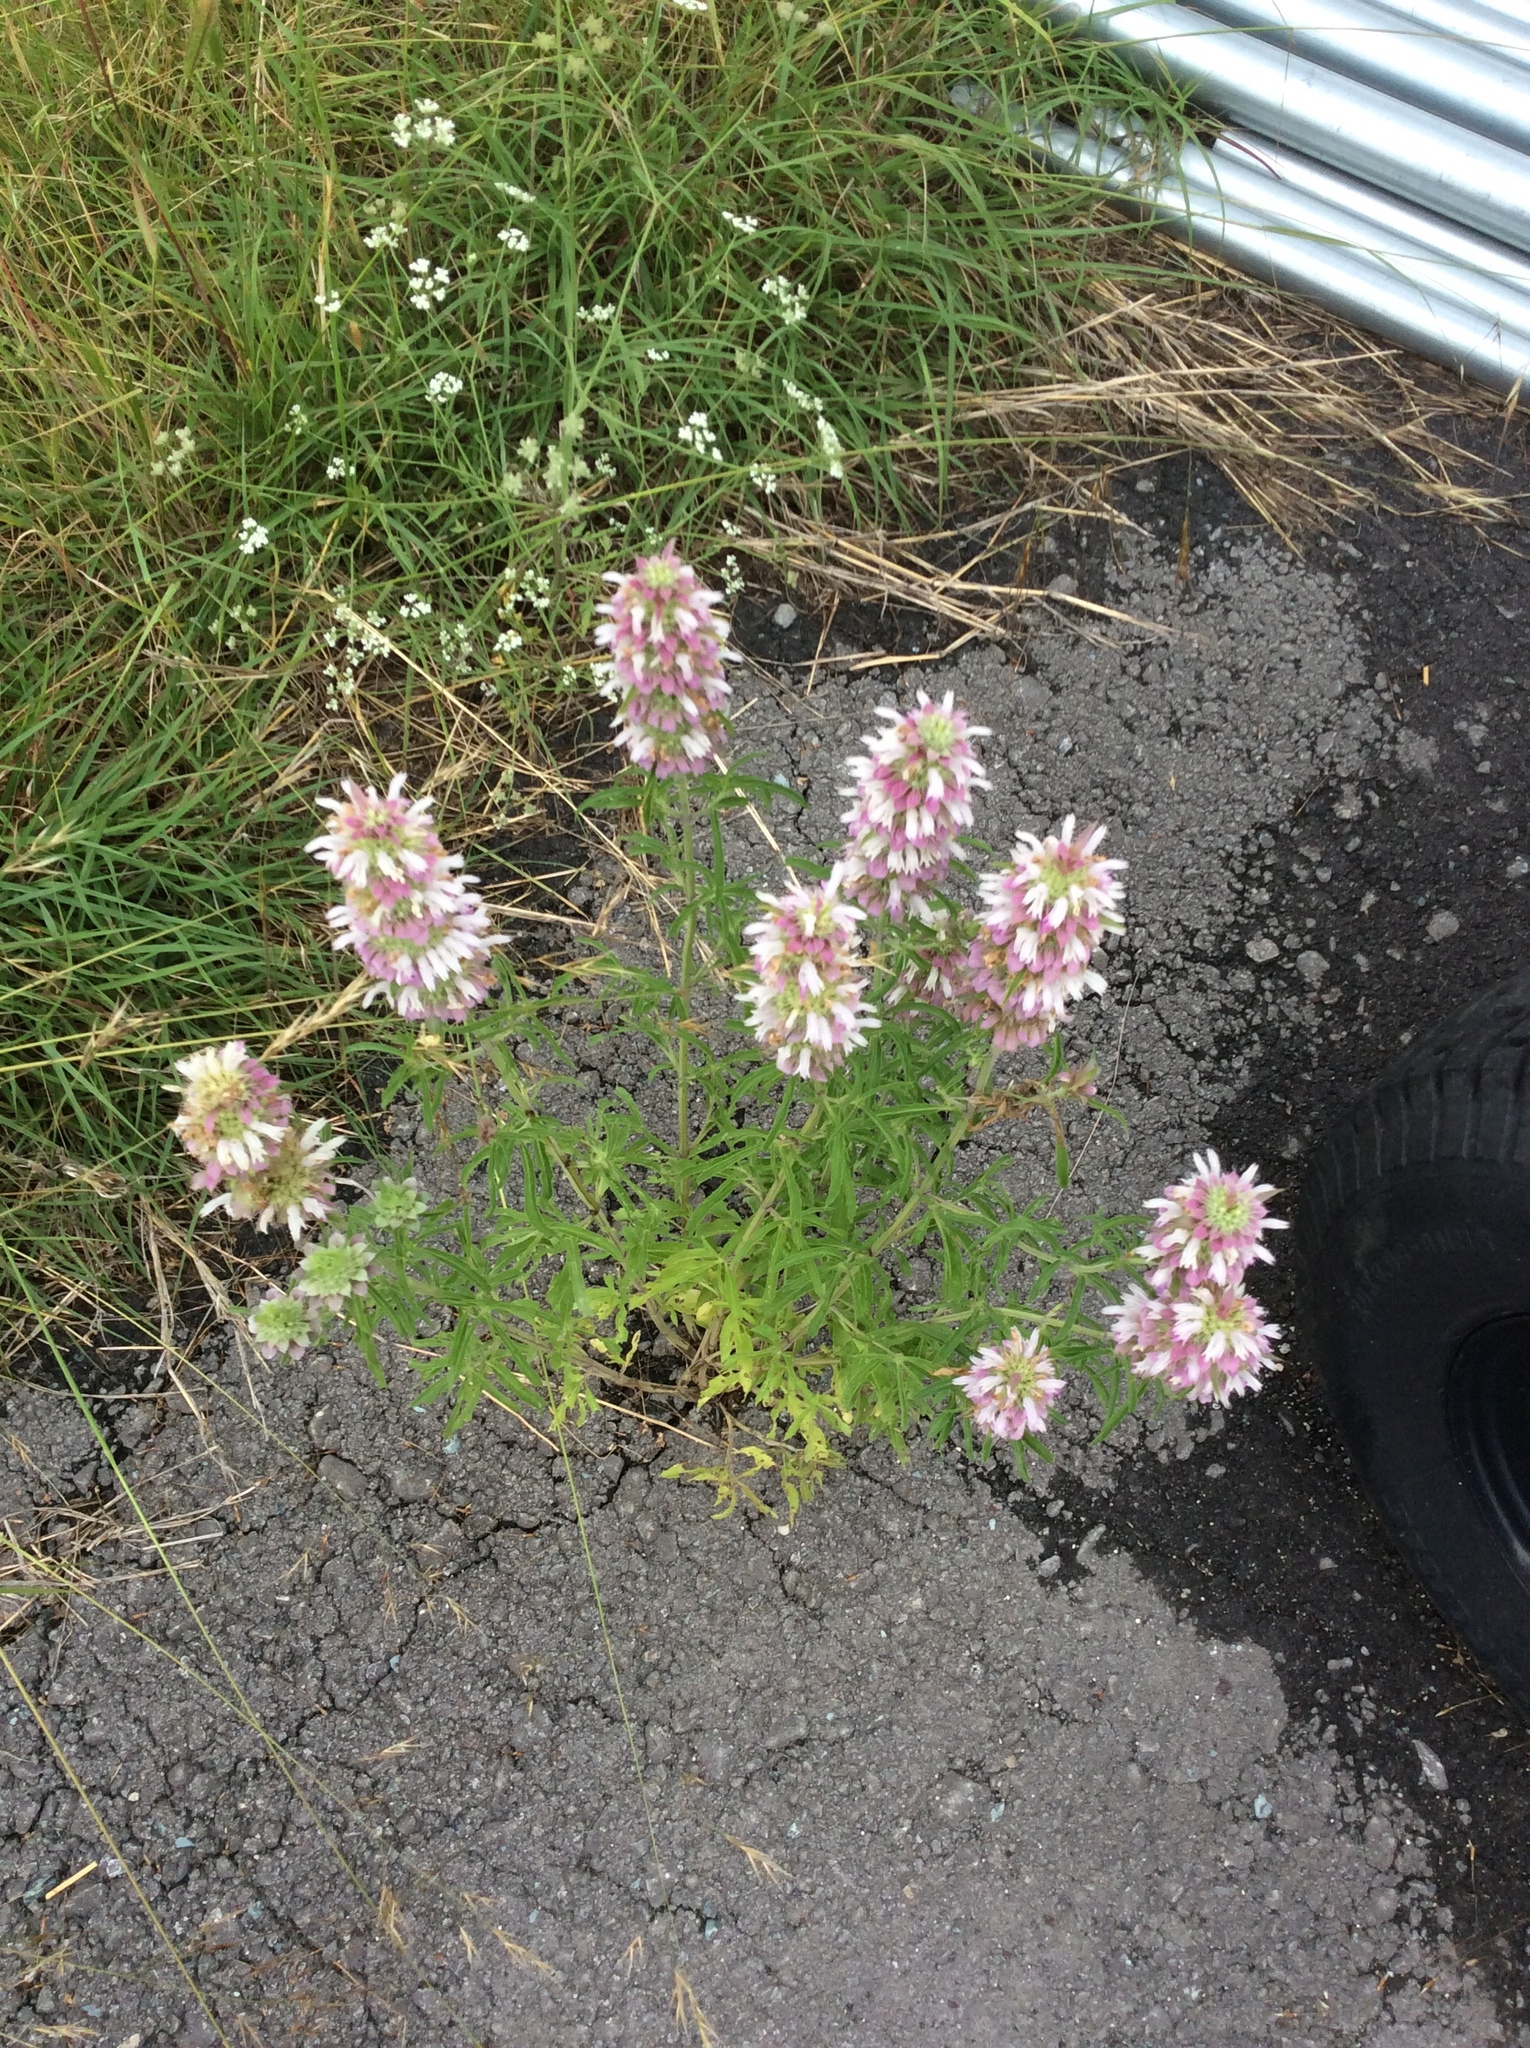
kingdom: Plantae
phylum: Tracheophyta
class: Magnoliopsida
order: Lamiales
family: Lamiaceae
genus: Monarda
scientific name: Monarda citriodora
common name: Lemon beebalm
